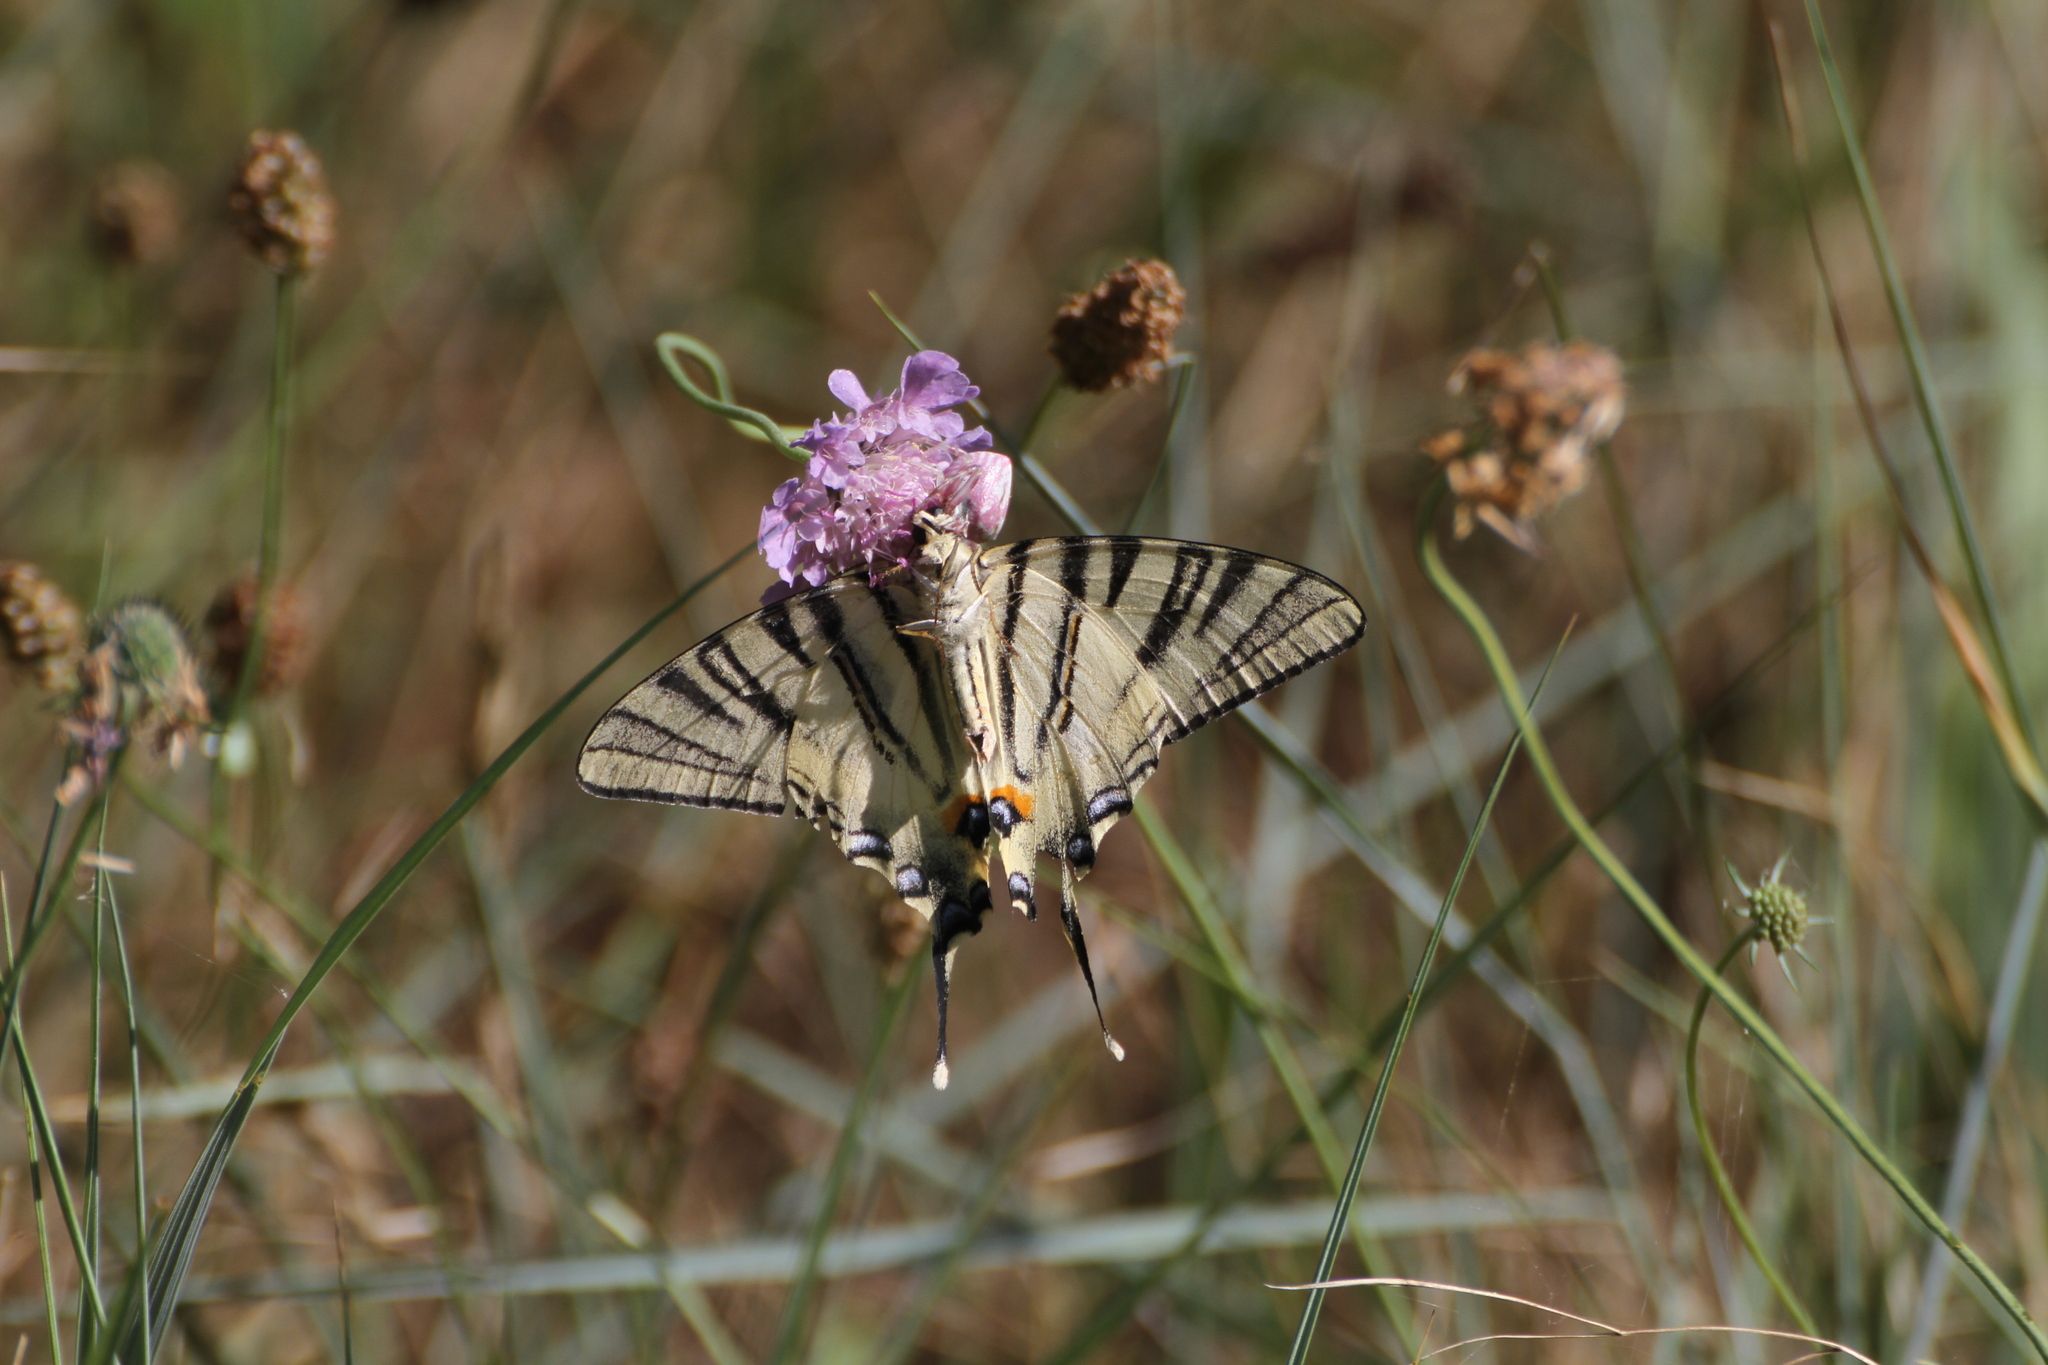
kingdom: Animalia
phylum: Arthropoda
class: Arachnida
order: Araneae
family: Thomisidae
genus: Thomisus
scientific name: Thomisus onustus
